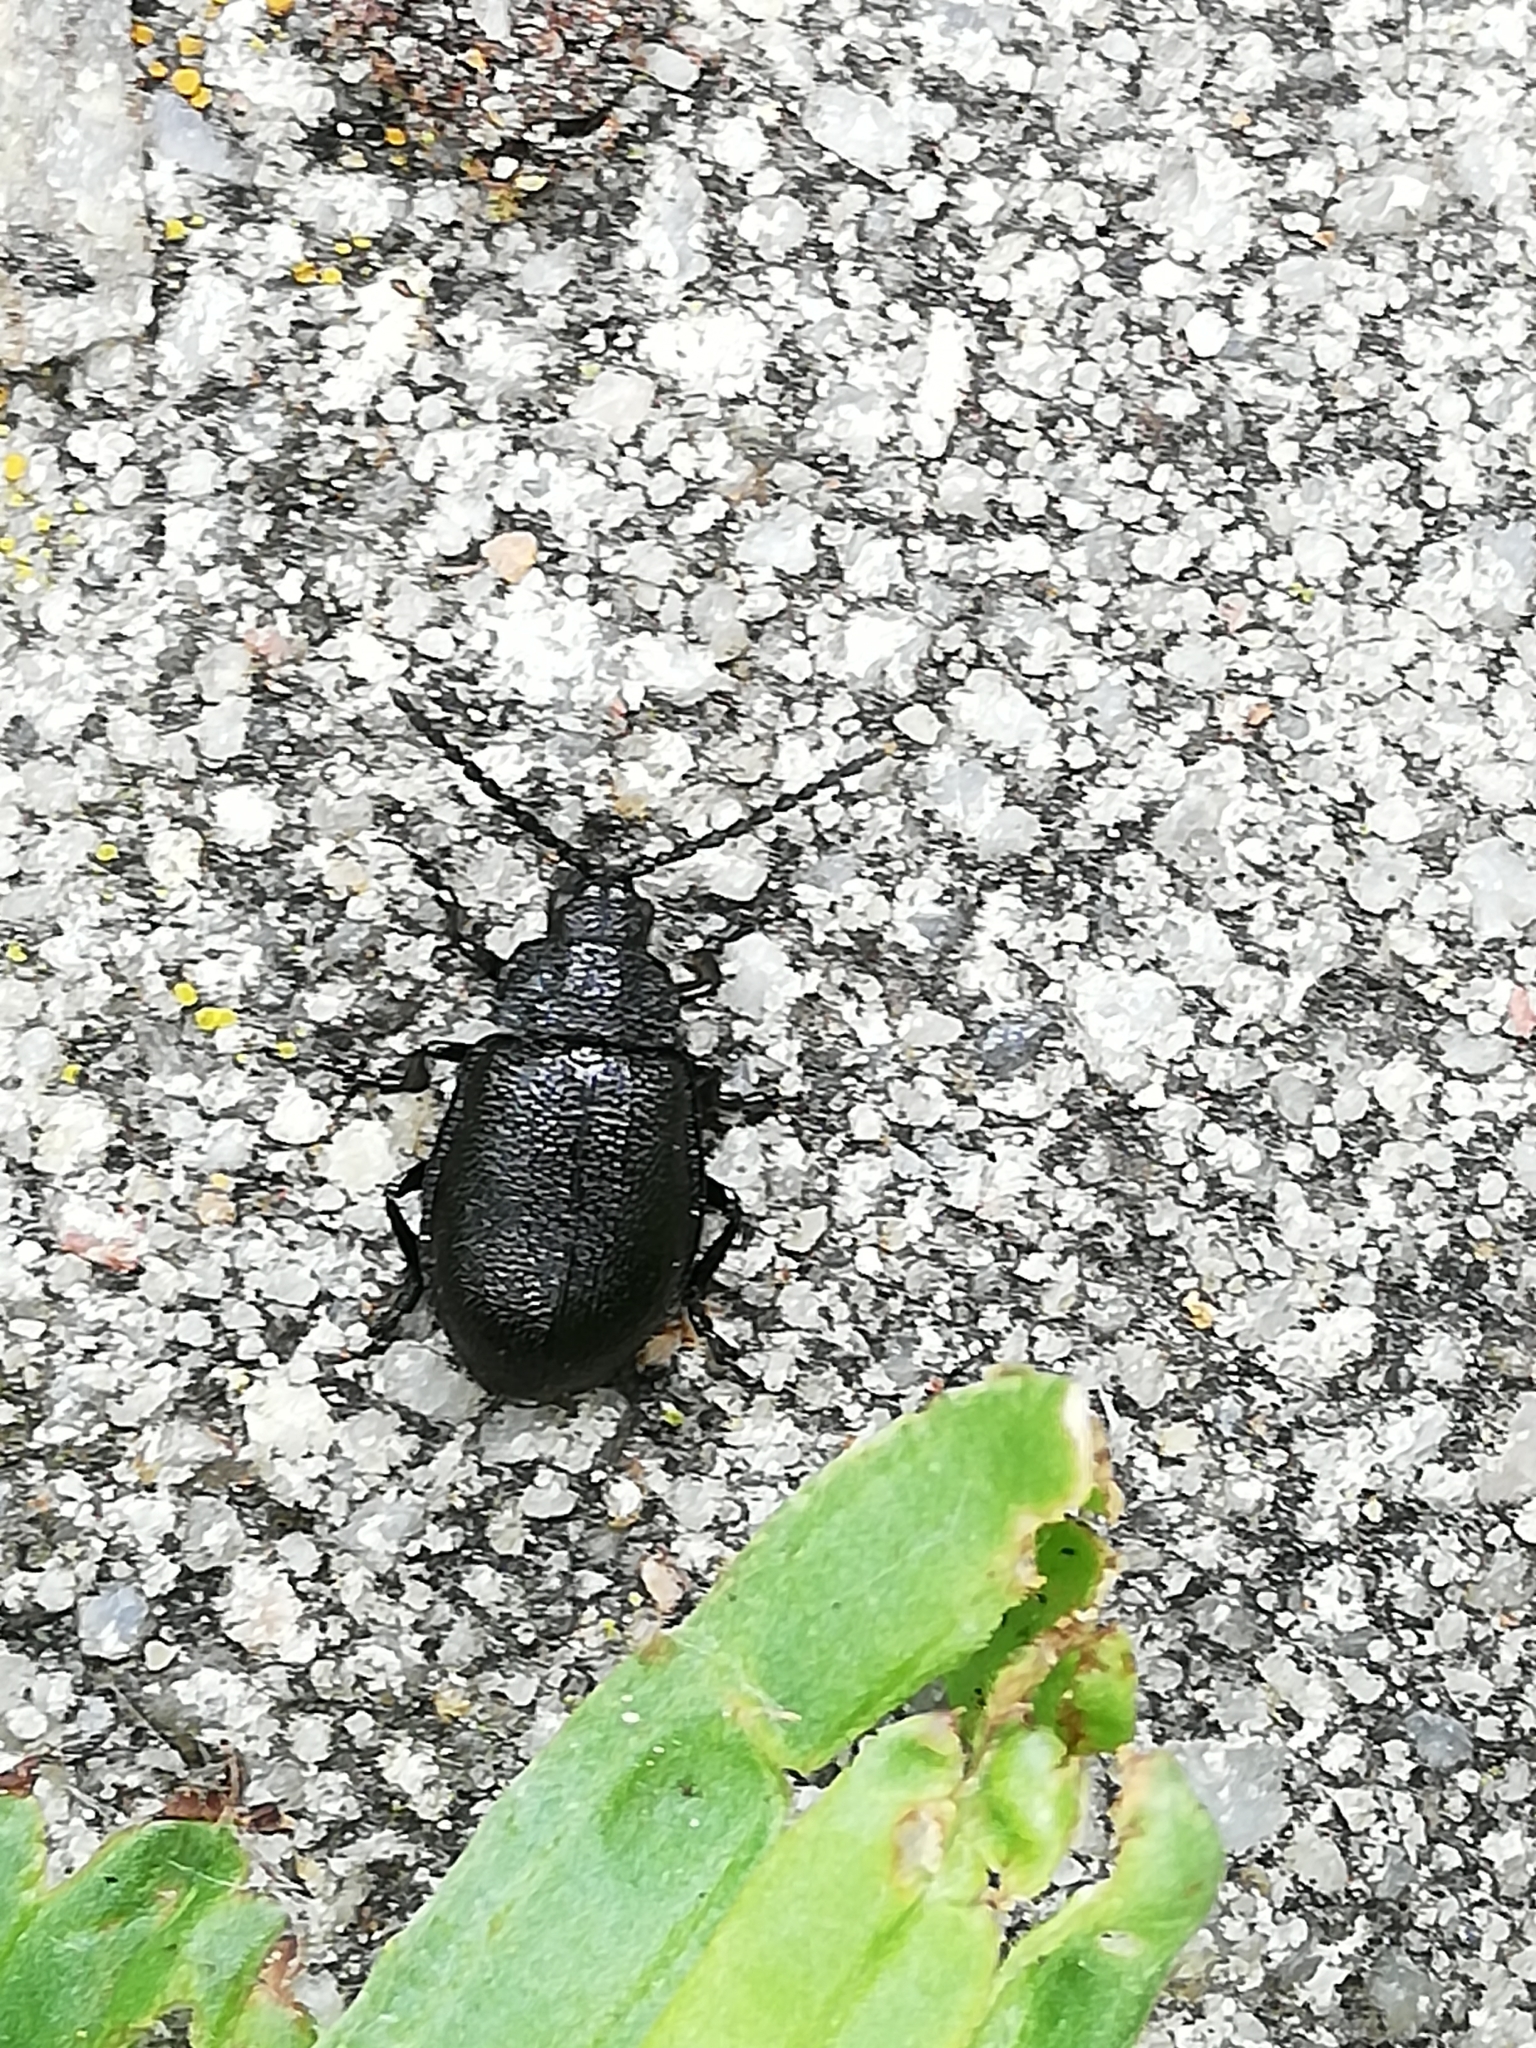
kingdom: Animalia
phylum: Arthropoda
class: Insecta
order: Coleoptera
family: Chrysomelidae
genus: Galeruca
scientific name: Galeruca tanaceti
